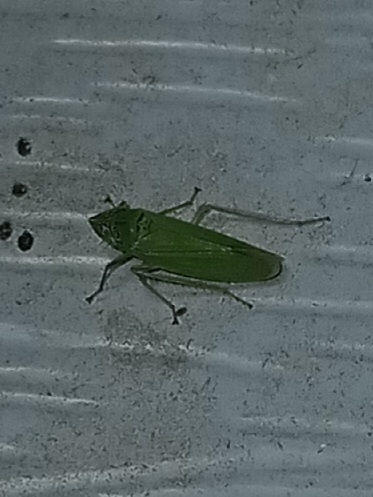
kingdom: Animalia
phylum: Arthropoda
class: Insecta
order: Hemiptera
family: Cicadellidae
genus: Draeculacephala
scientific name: Draeculacephala inscripta
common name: Leafhopper
